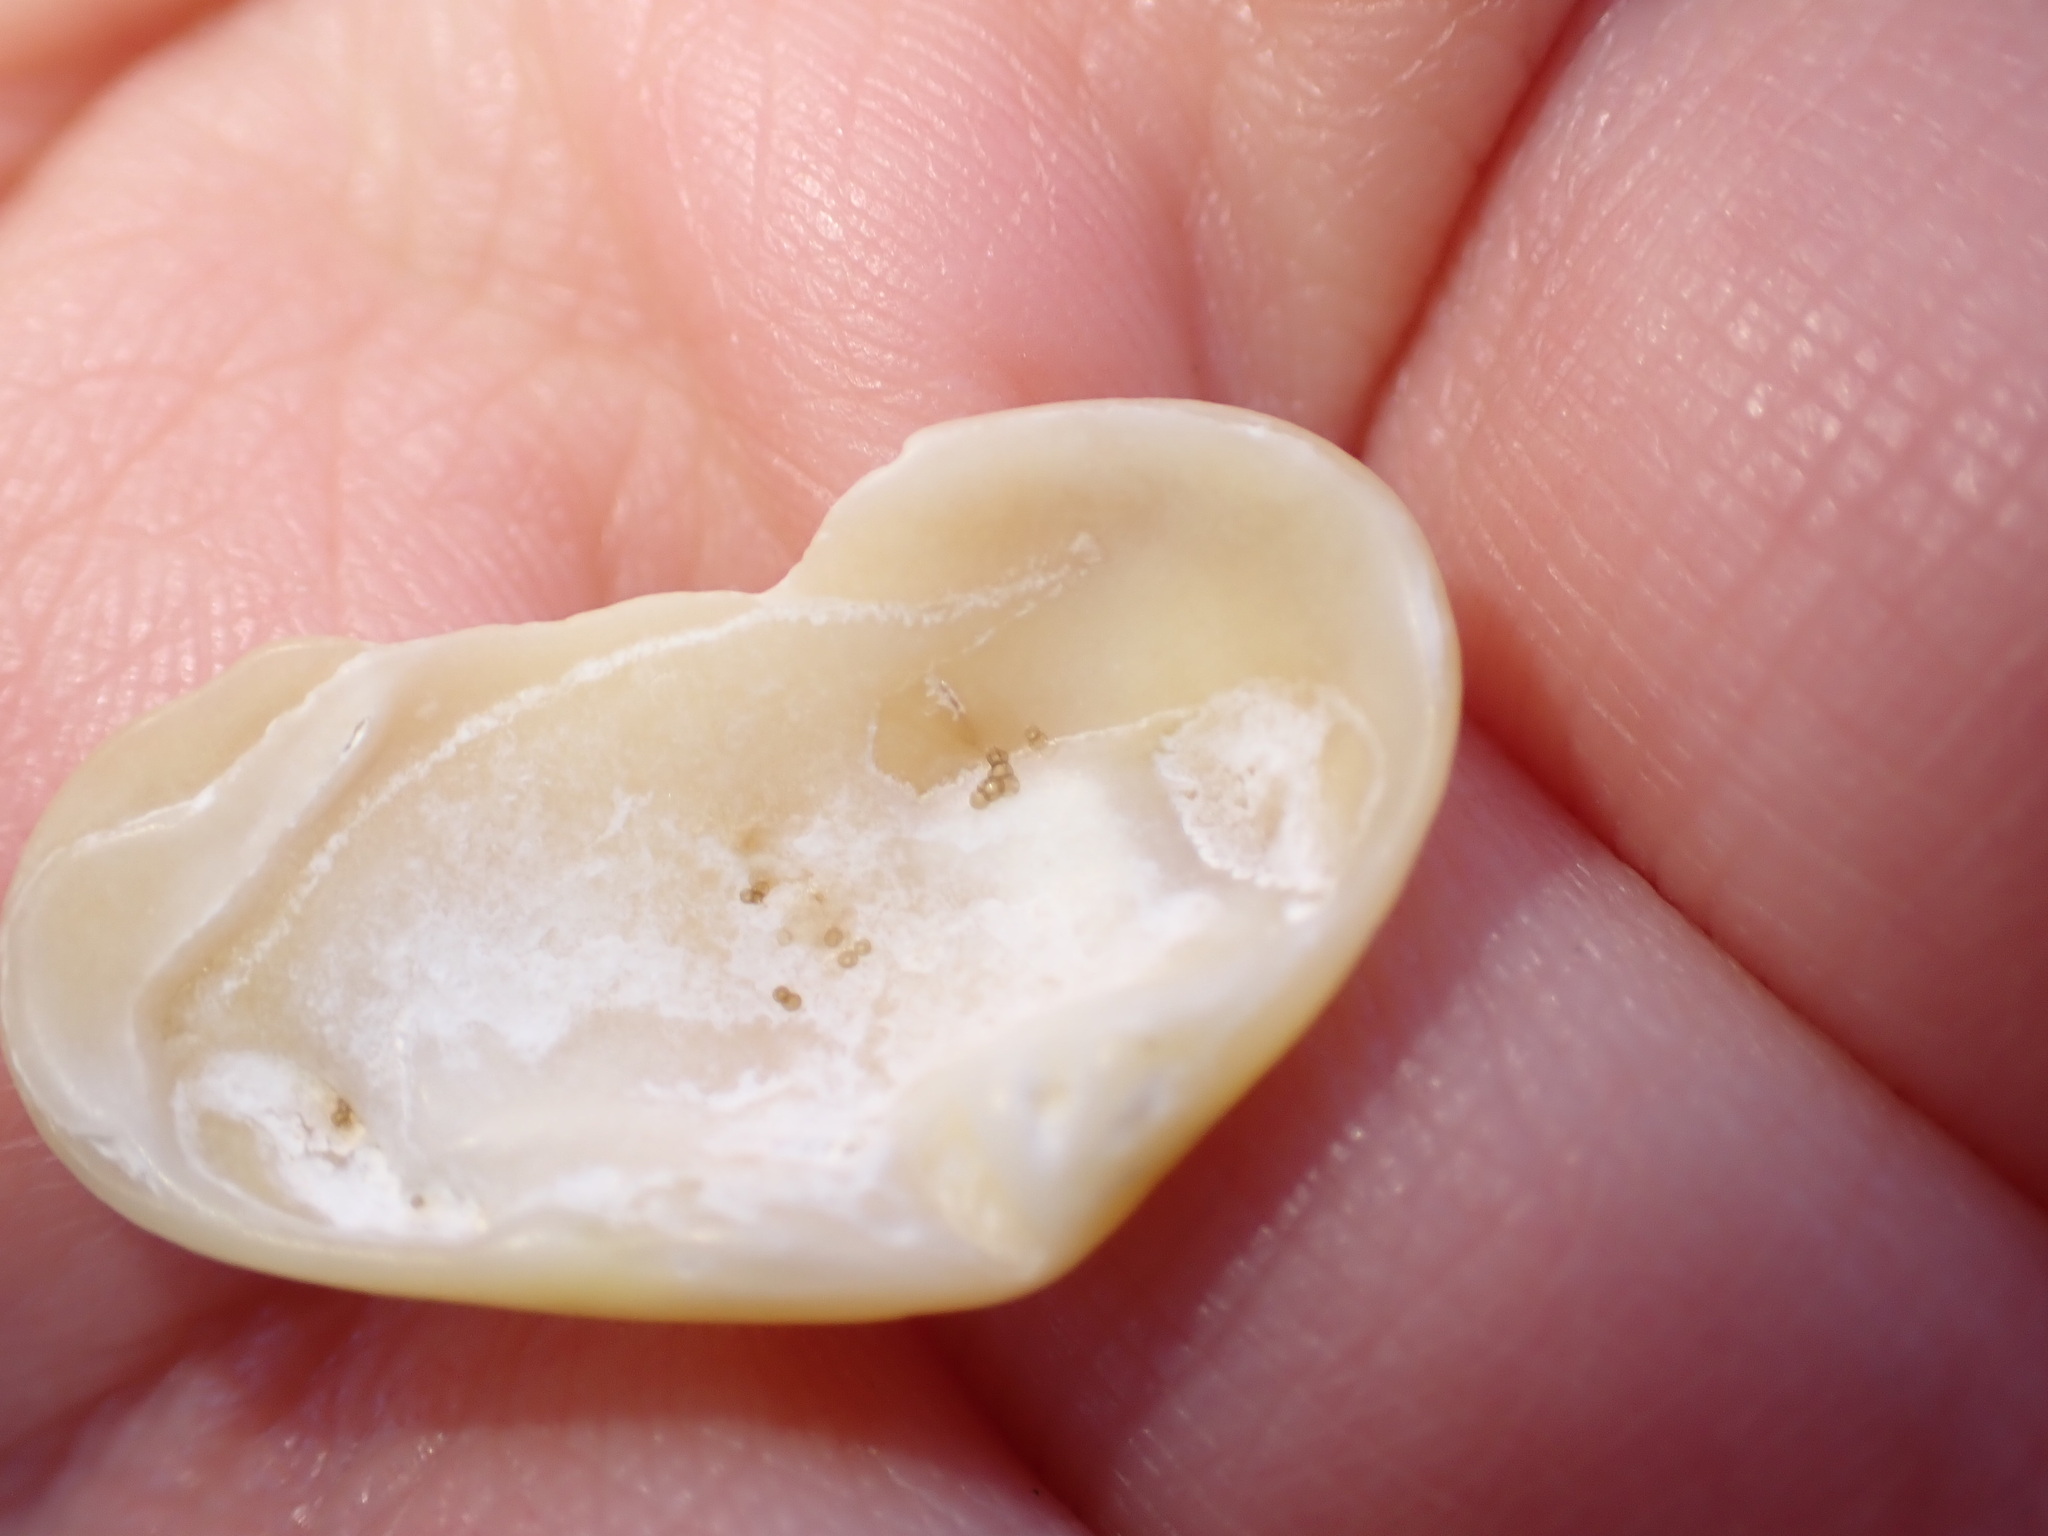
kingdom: Animalia
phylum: Mollusca
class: Bivalvia
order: Venerida
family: Mesodesmatidae
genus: Donacilla
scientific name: Donacilla cornea
